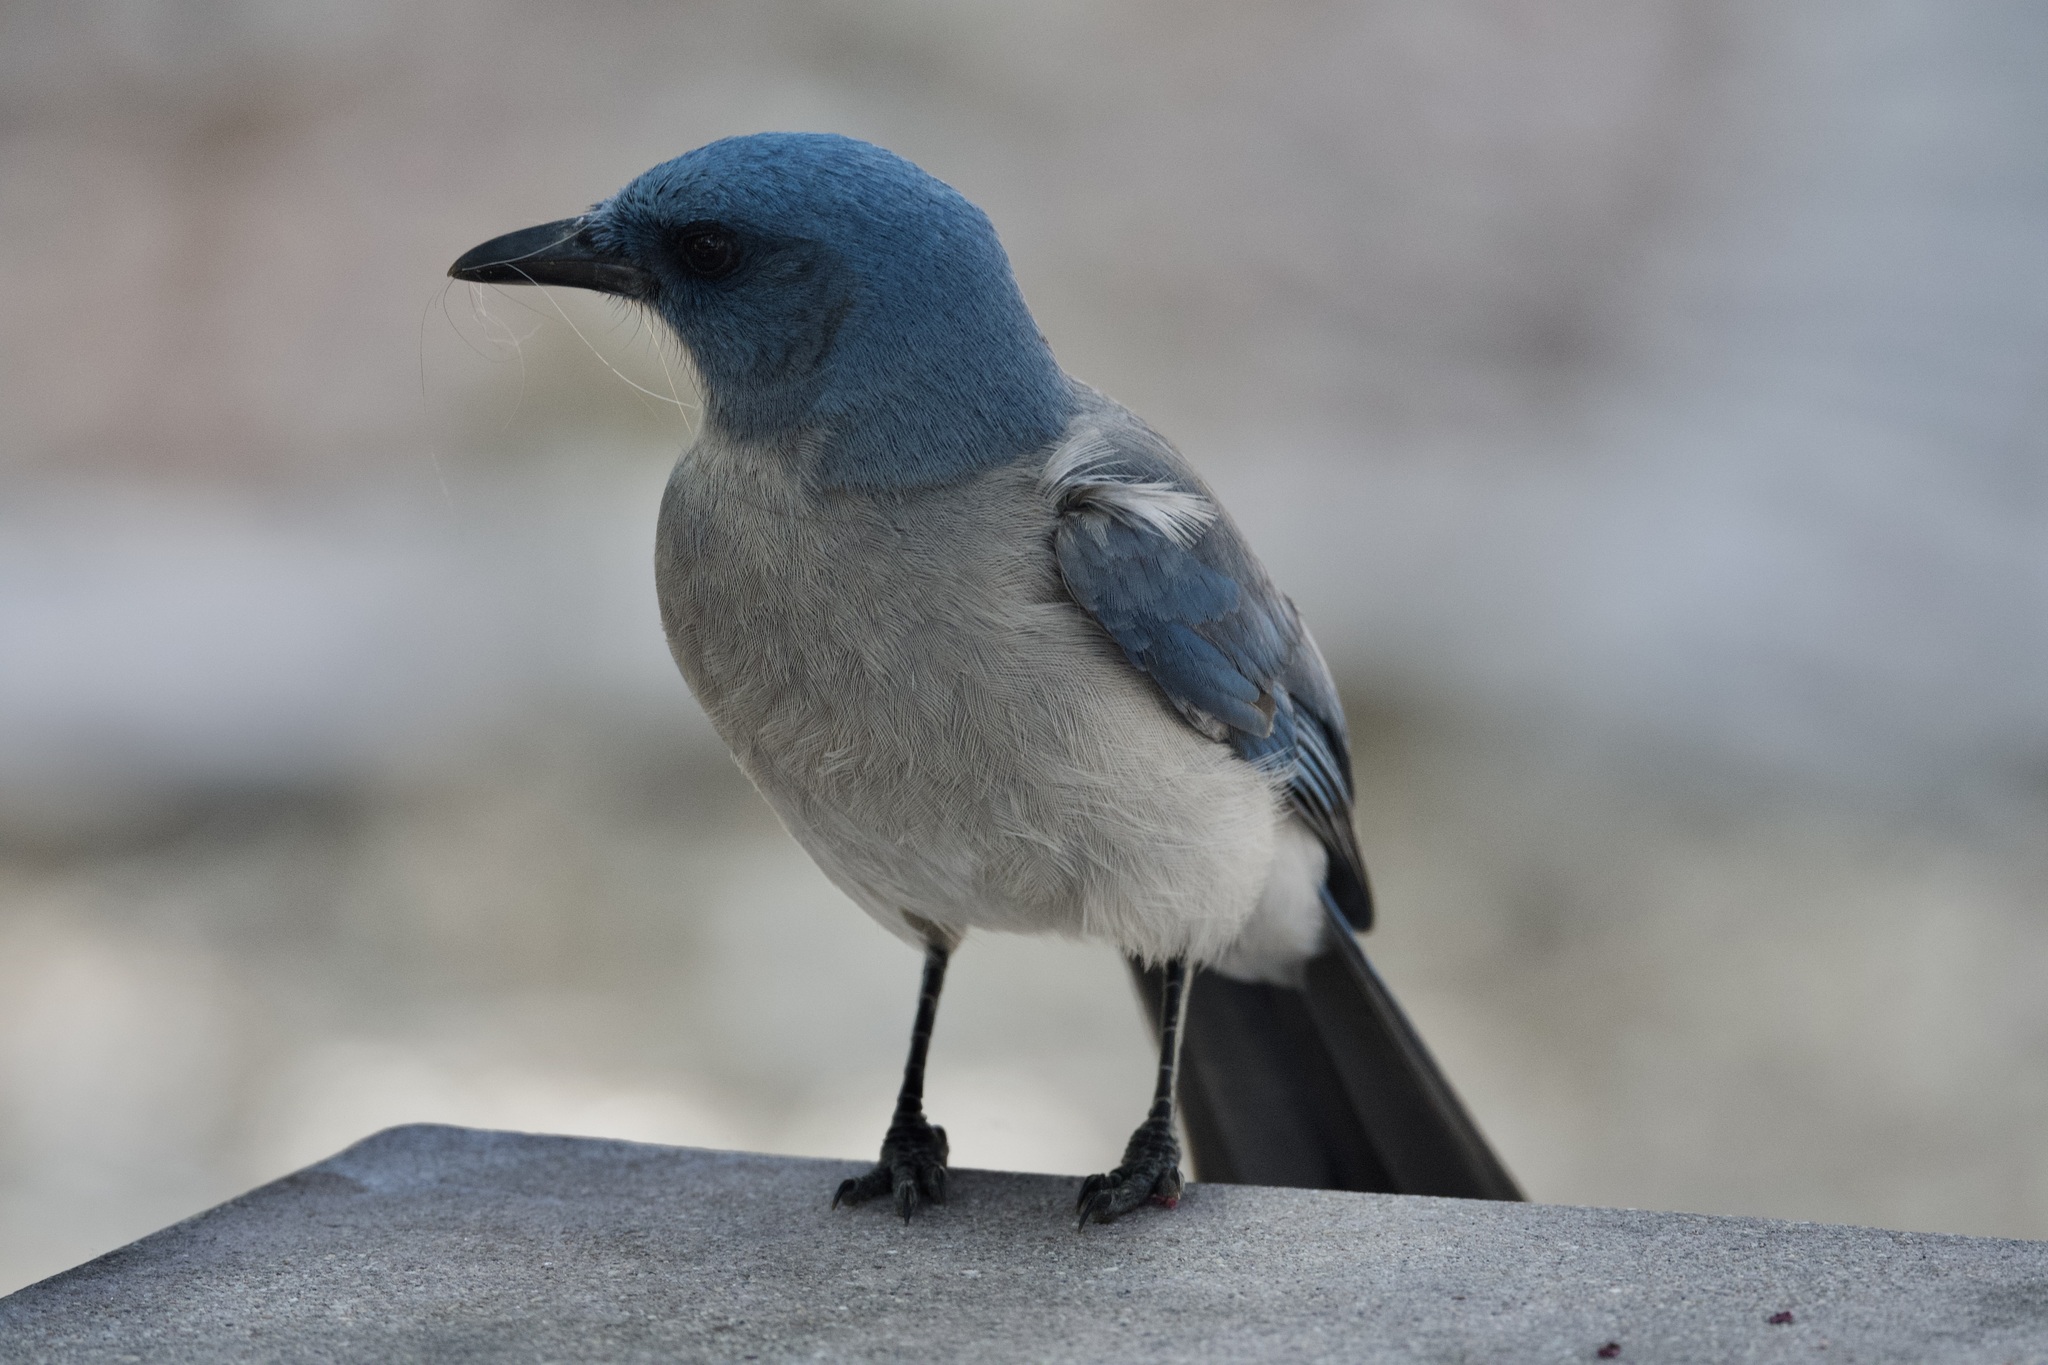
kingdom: Animalia
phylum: Chordata
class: Aves
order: Passeriformes
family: Corvidae
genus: Aphelocoma
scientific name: Aphelocoma wollweberi
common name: Mexican jay
